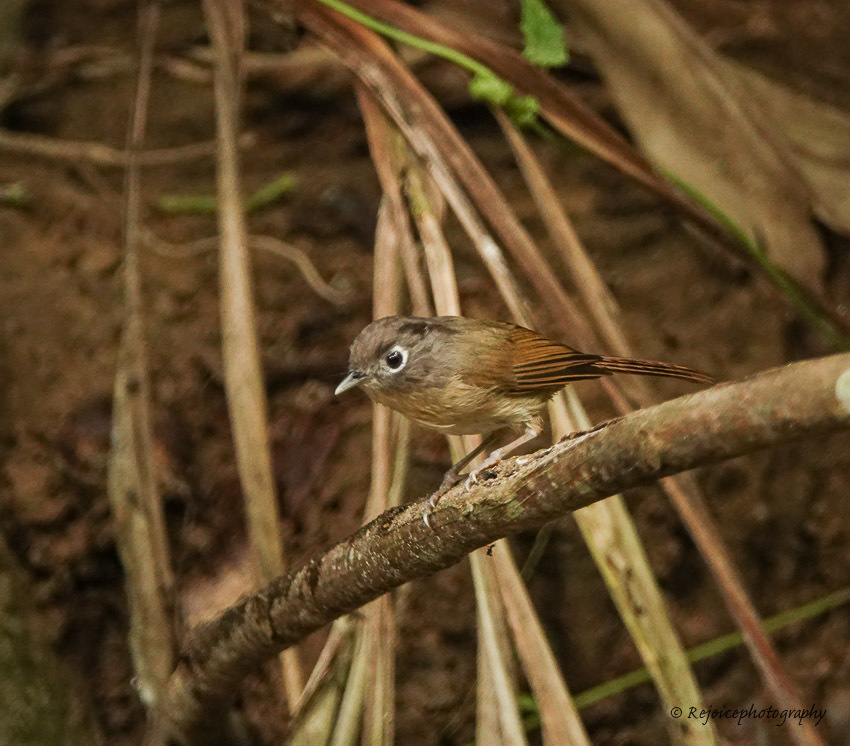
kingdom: Animalia
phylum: Chordata
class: Aves
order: Passeriformes
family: Pellorneidae
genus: Alcippe
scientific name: Alcippe nipalensis
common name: Nepal fulvetta
